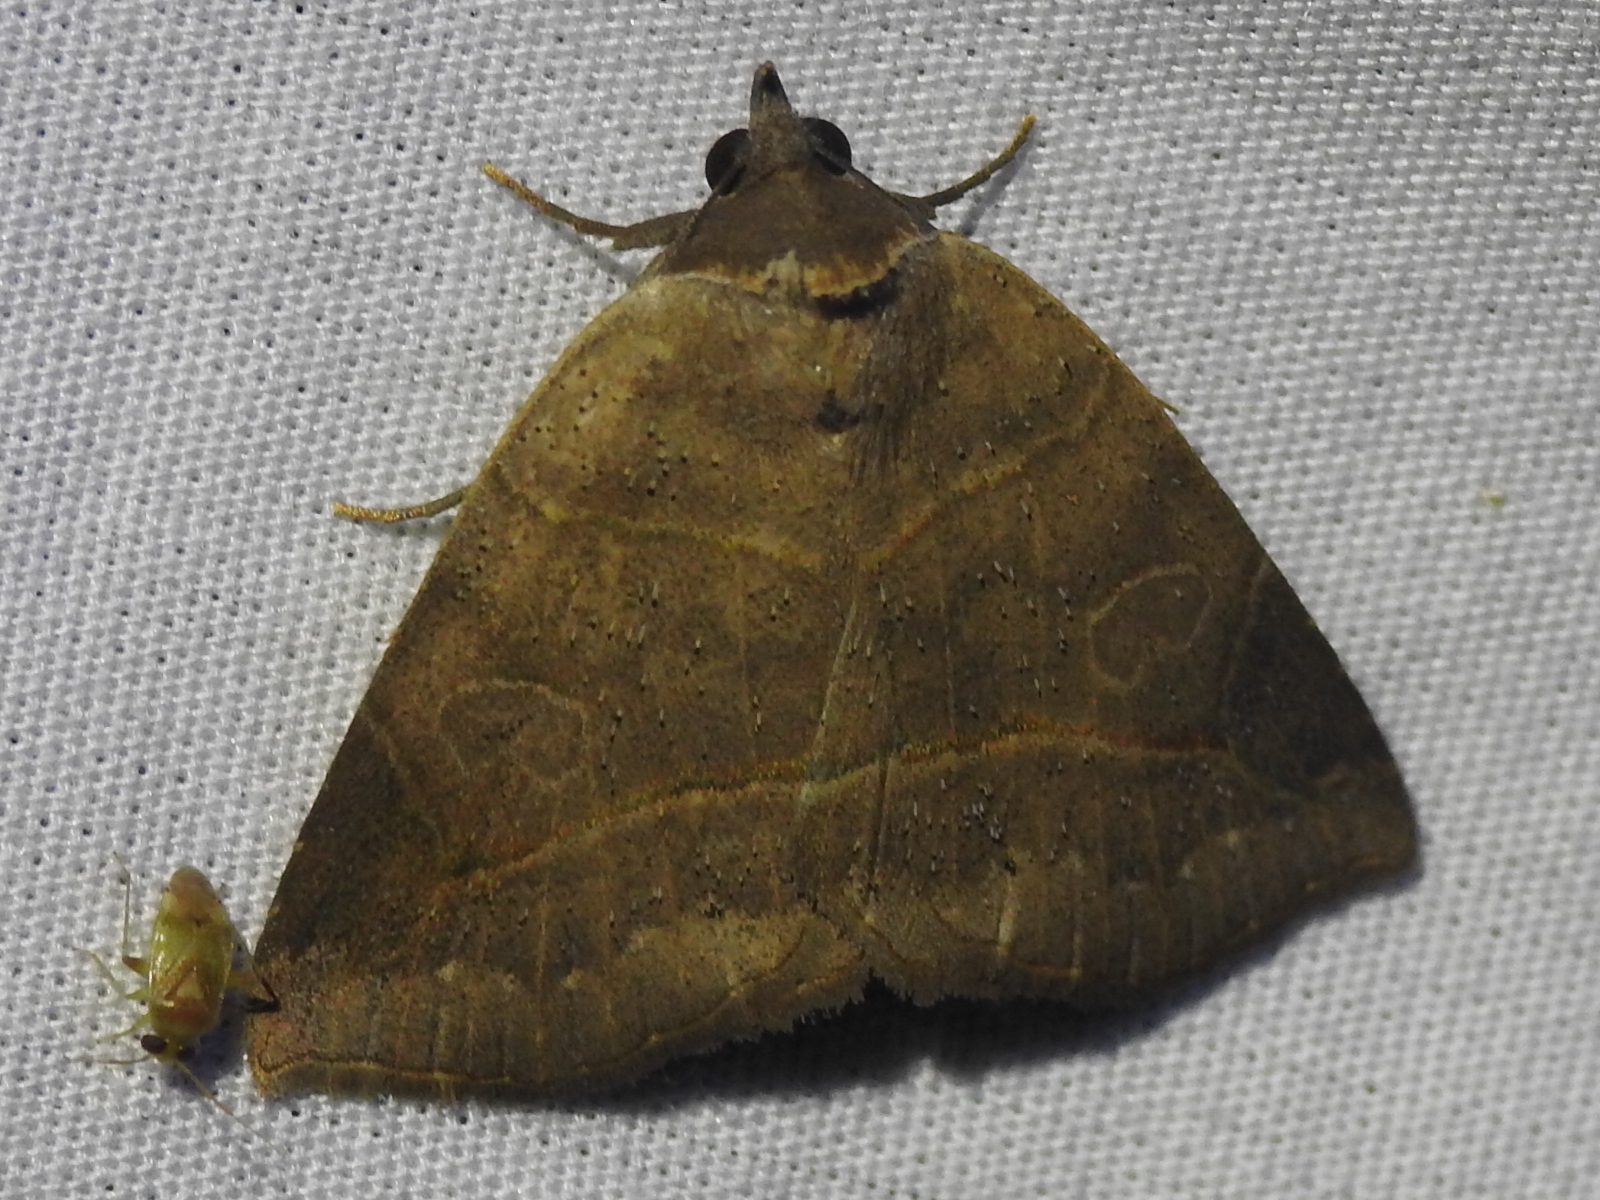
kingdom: Animalia
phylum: Arthropoda
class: Insecta
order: Lepidoptera
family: Erebidae
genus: Isogona
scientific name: Isogona tenuis
